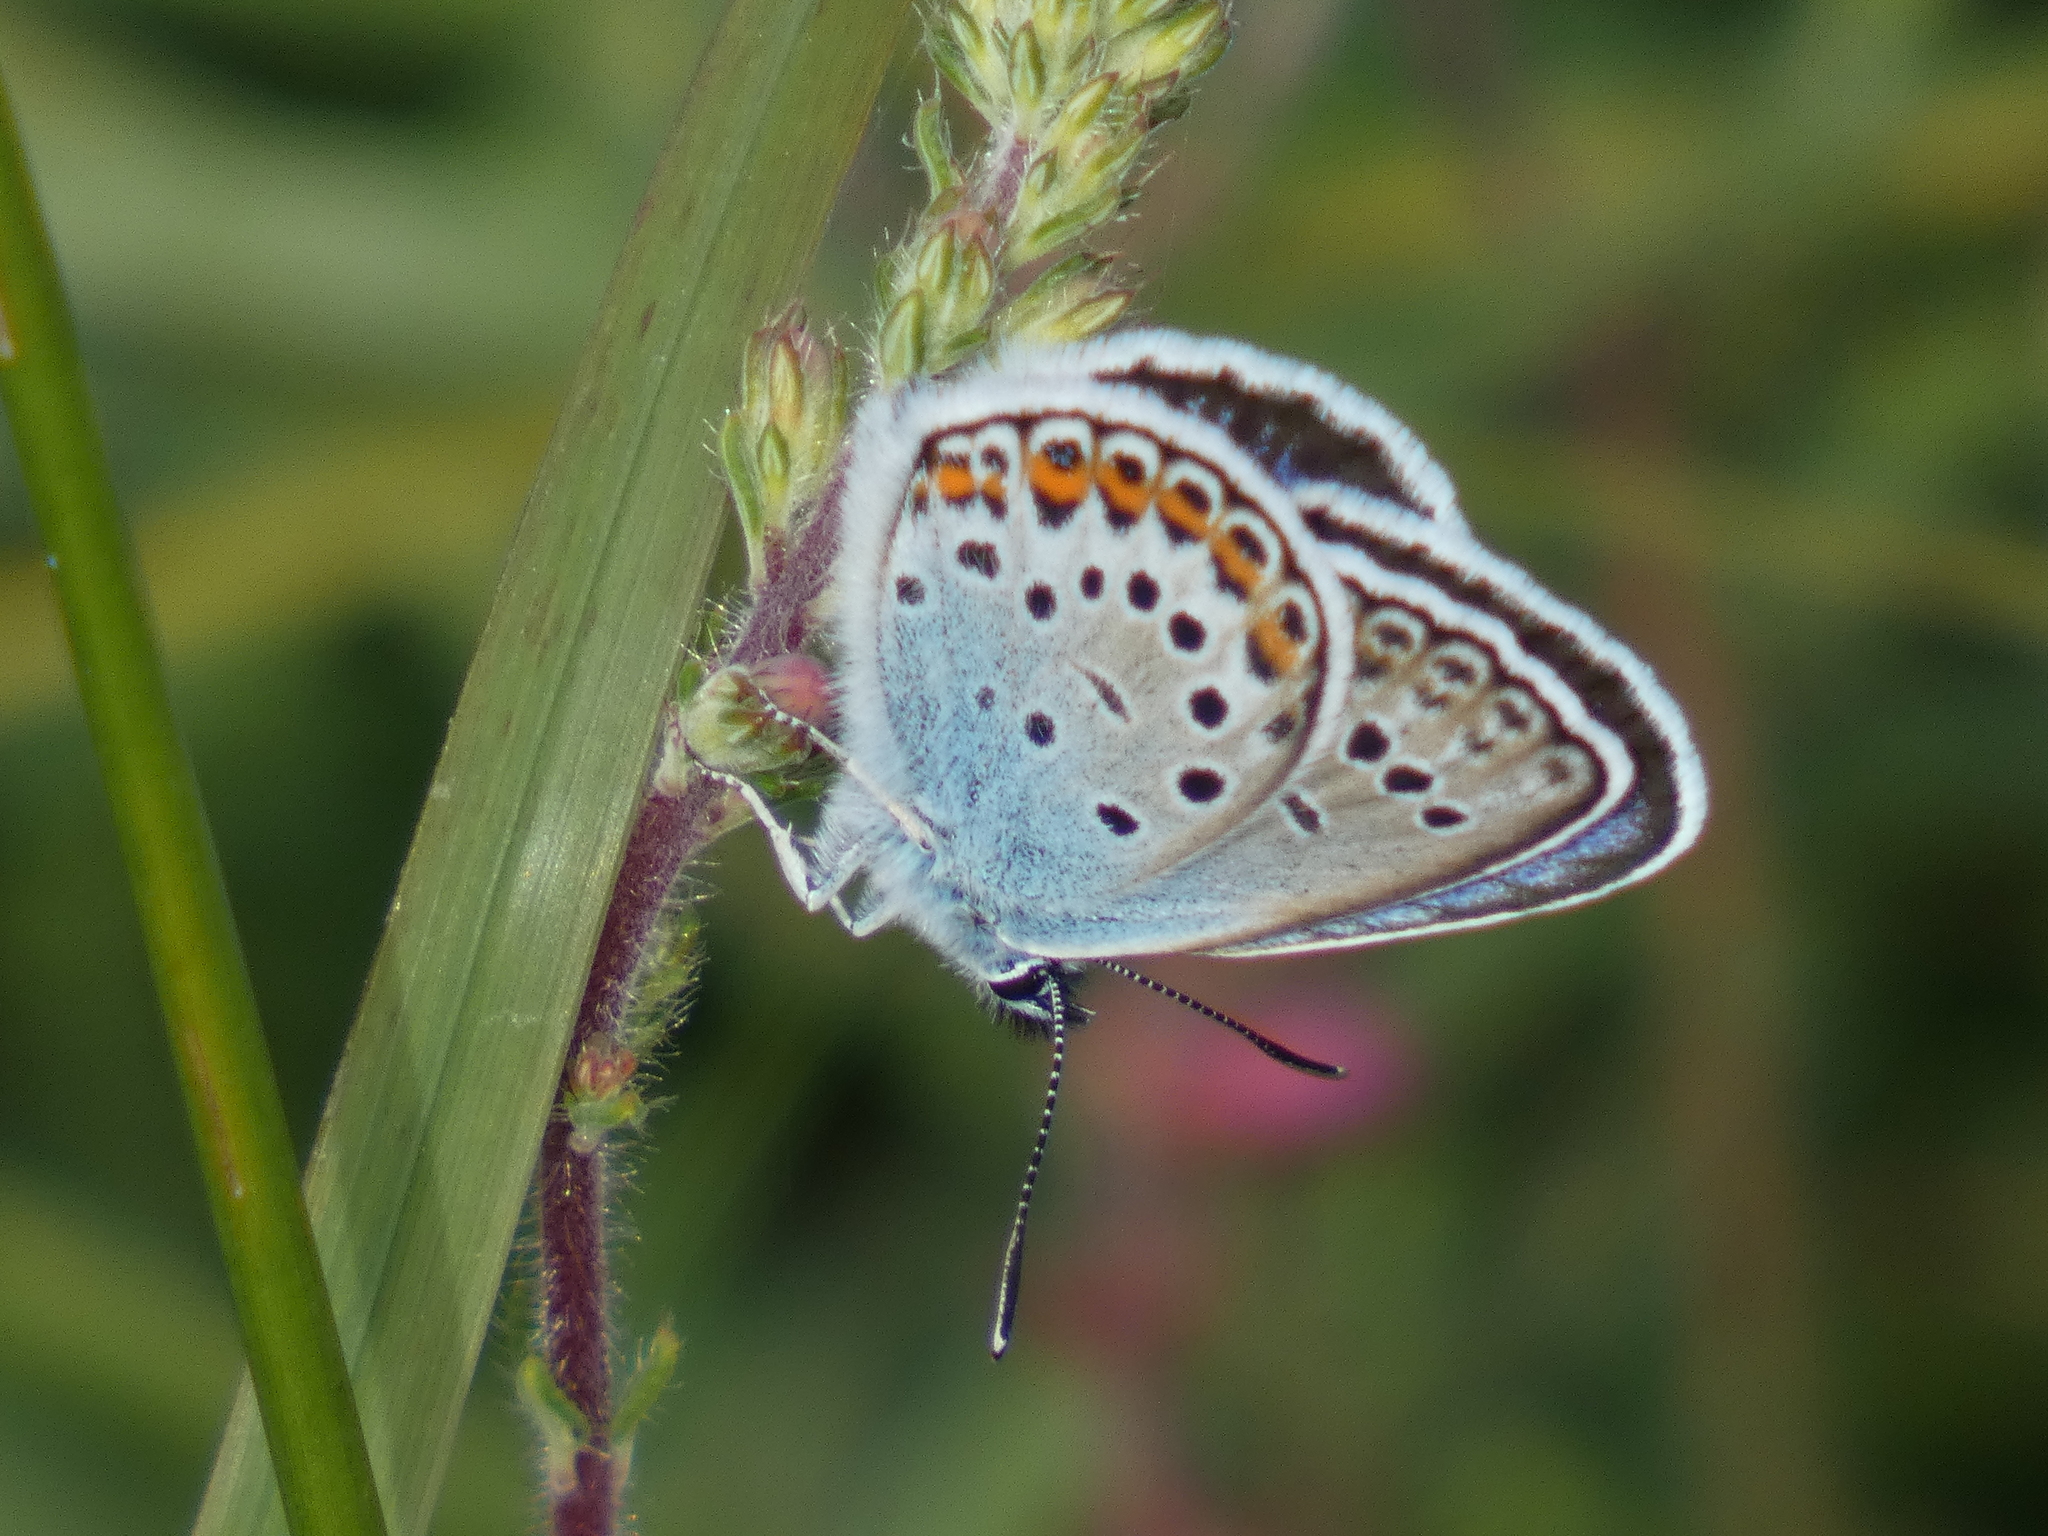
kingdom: Animalia
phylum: Arthropoda
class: Insecta
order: Lepidoptera
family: Lycaenidae
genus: Plebejus
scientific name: Plebejus argus
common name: Silver-studded blue
